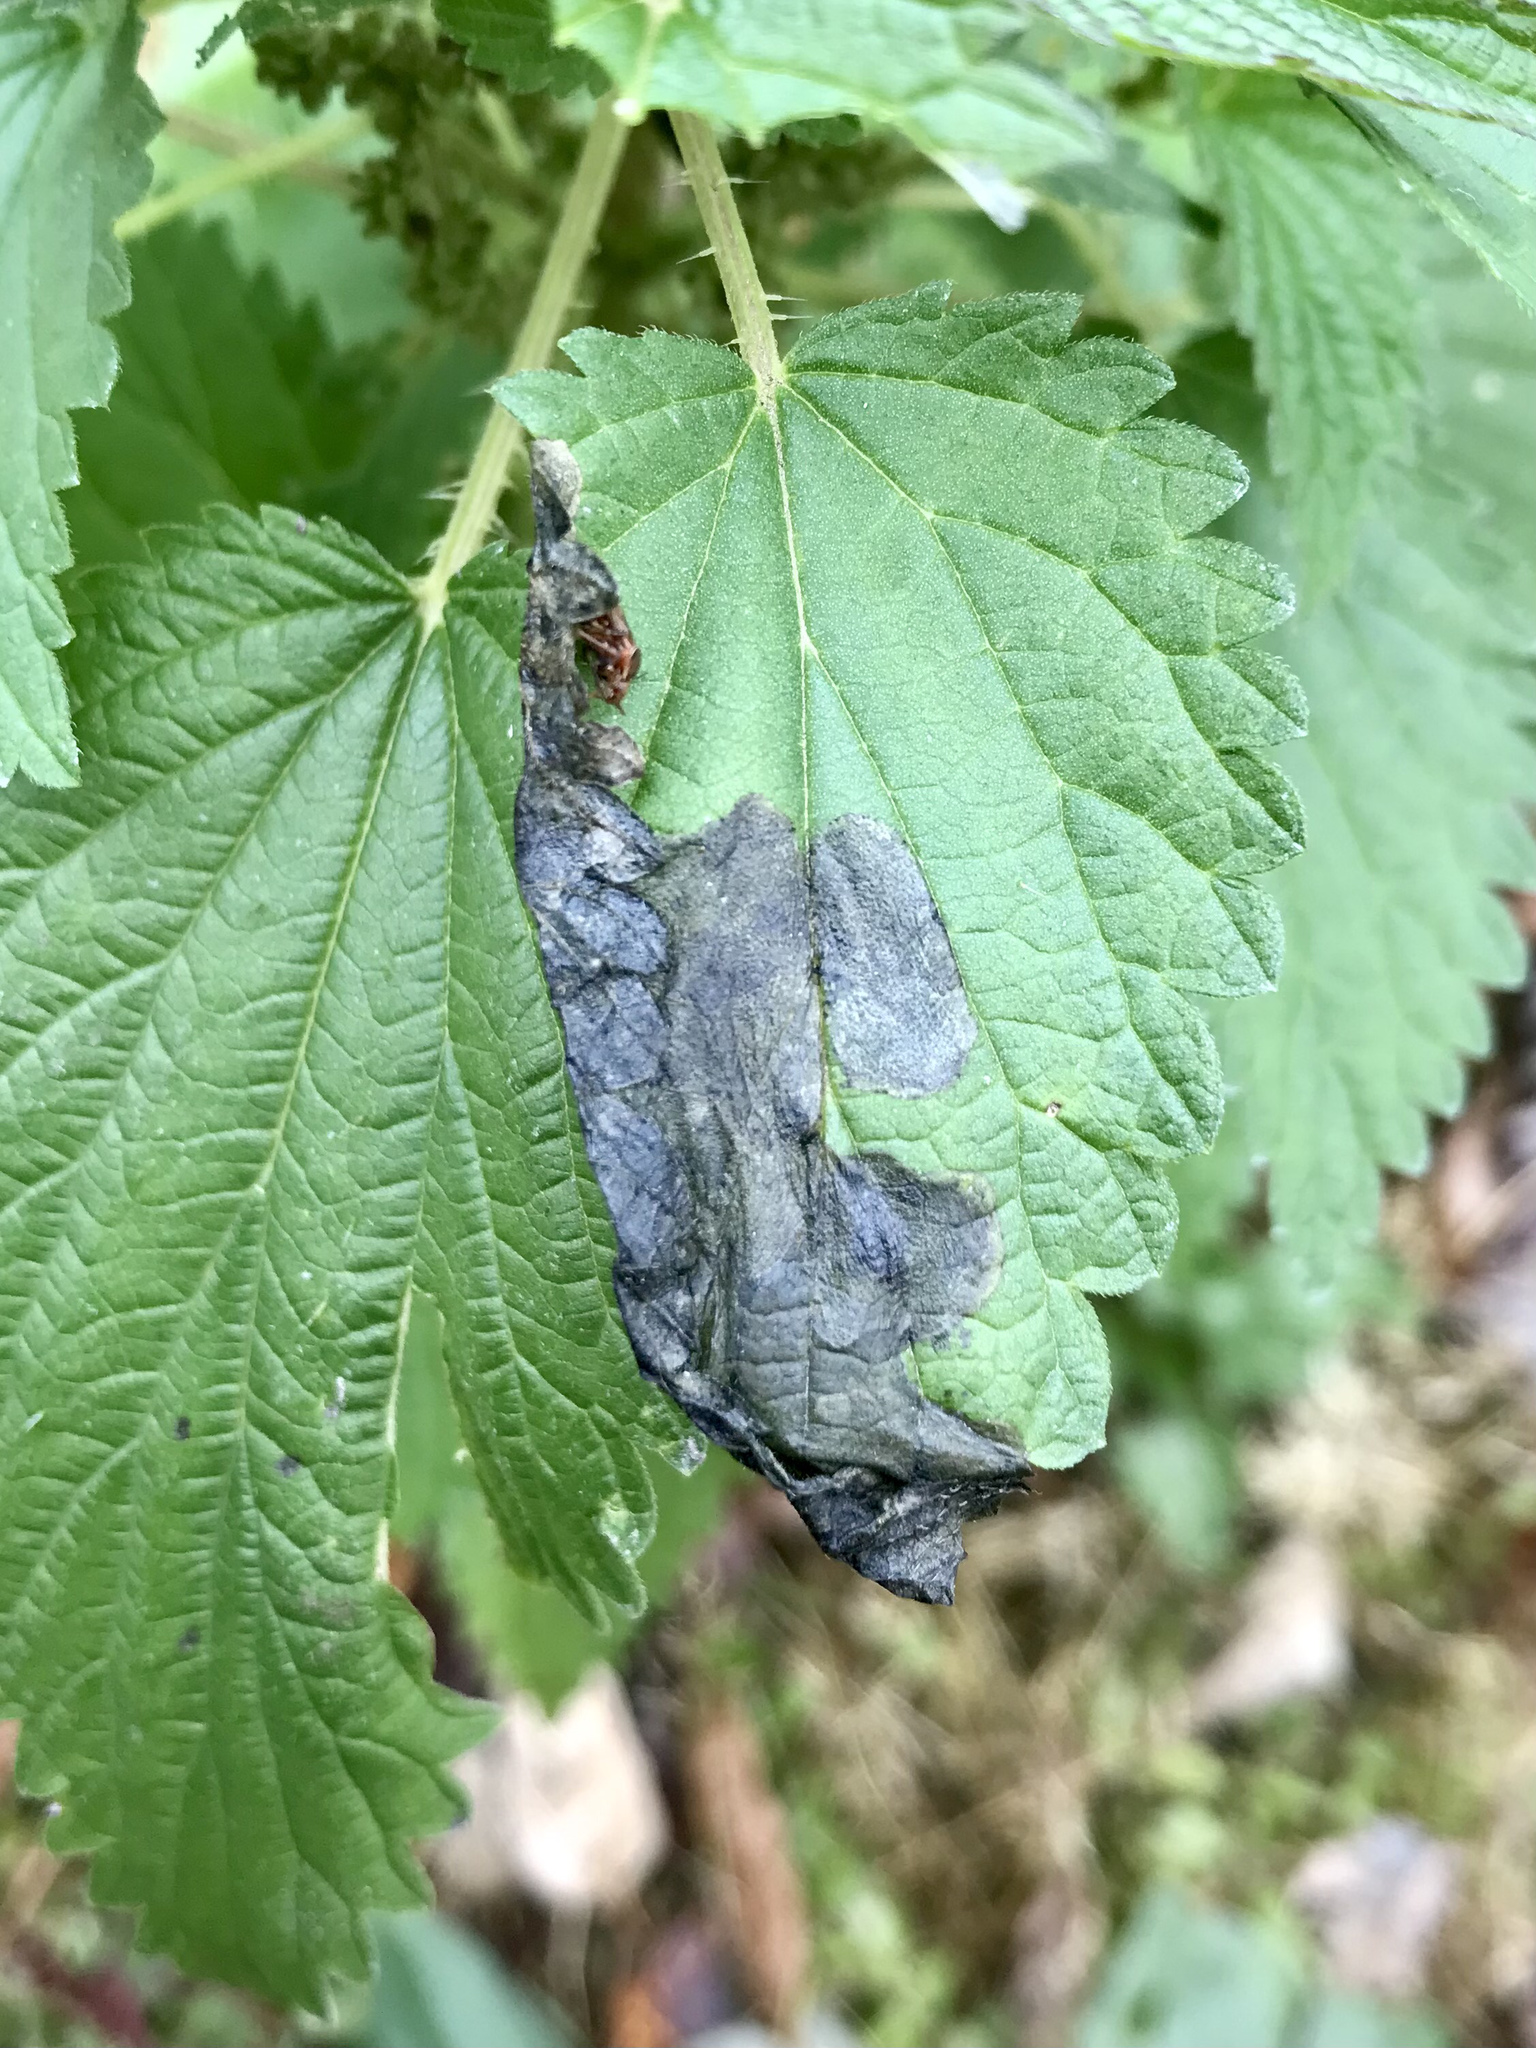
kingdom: Animalia
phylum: Arthropoda
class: Insecta
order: Diptera
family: Agromyzidae
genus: Agromyza
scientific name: Agromyza reptans
